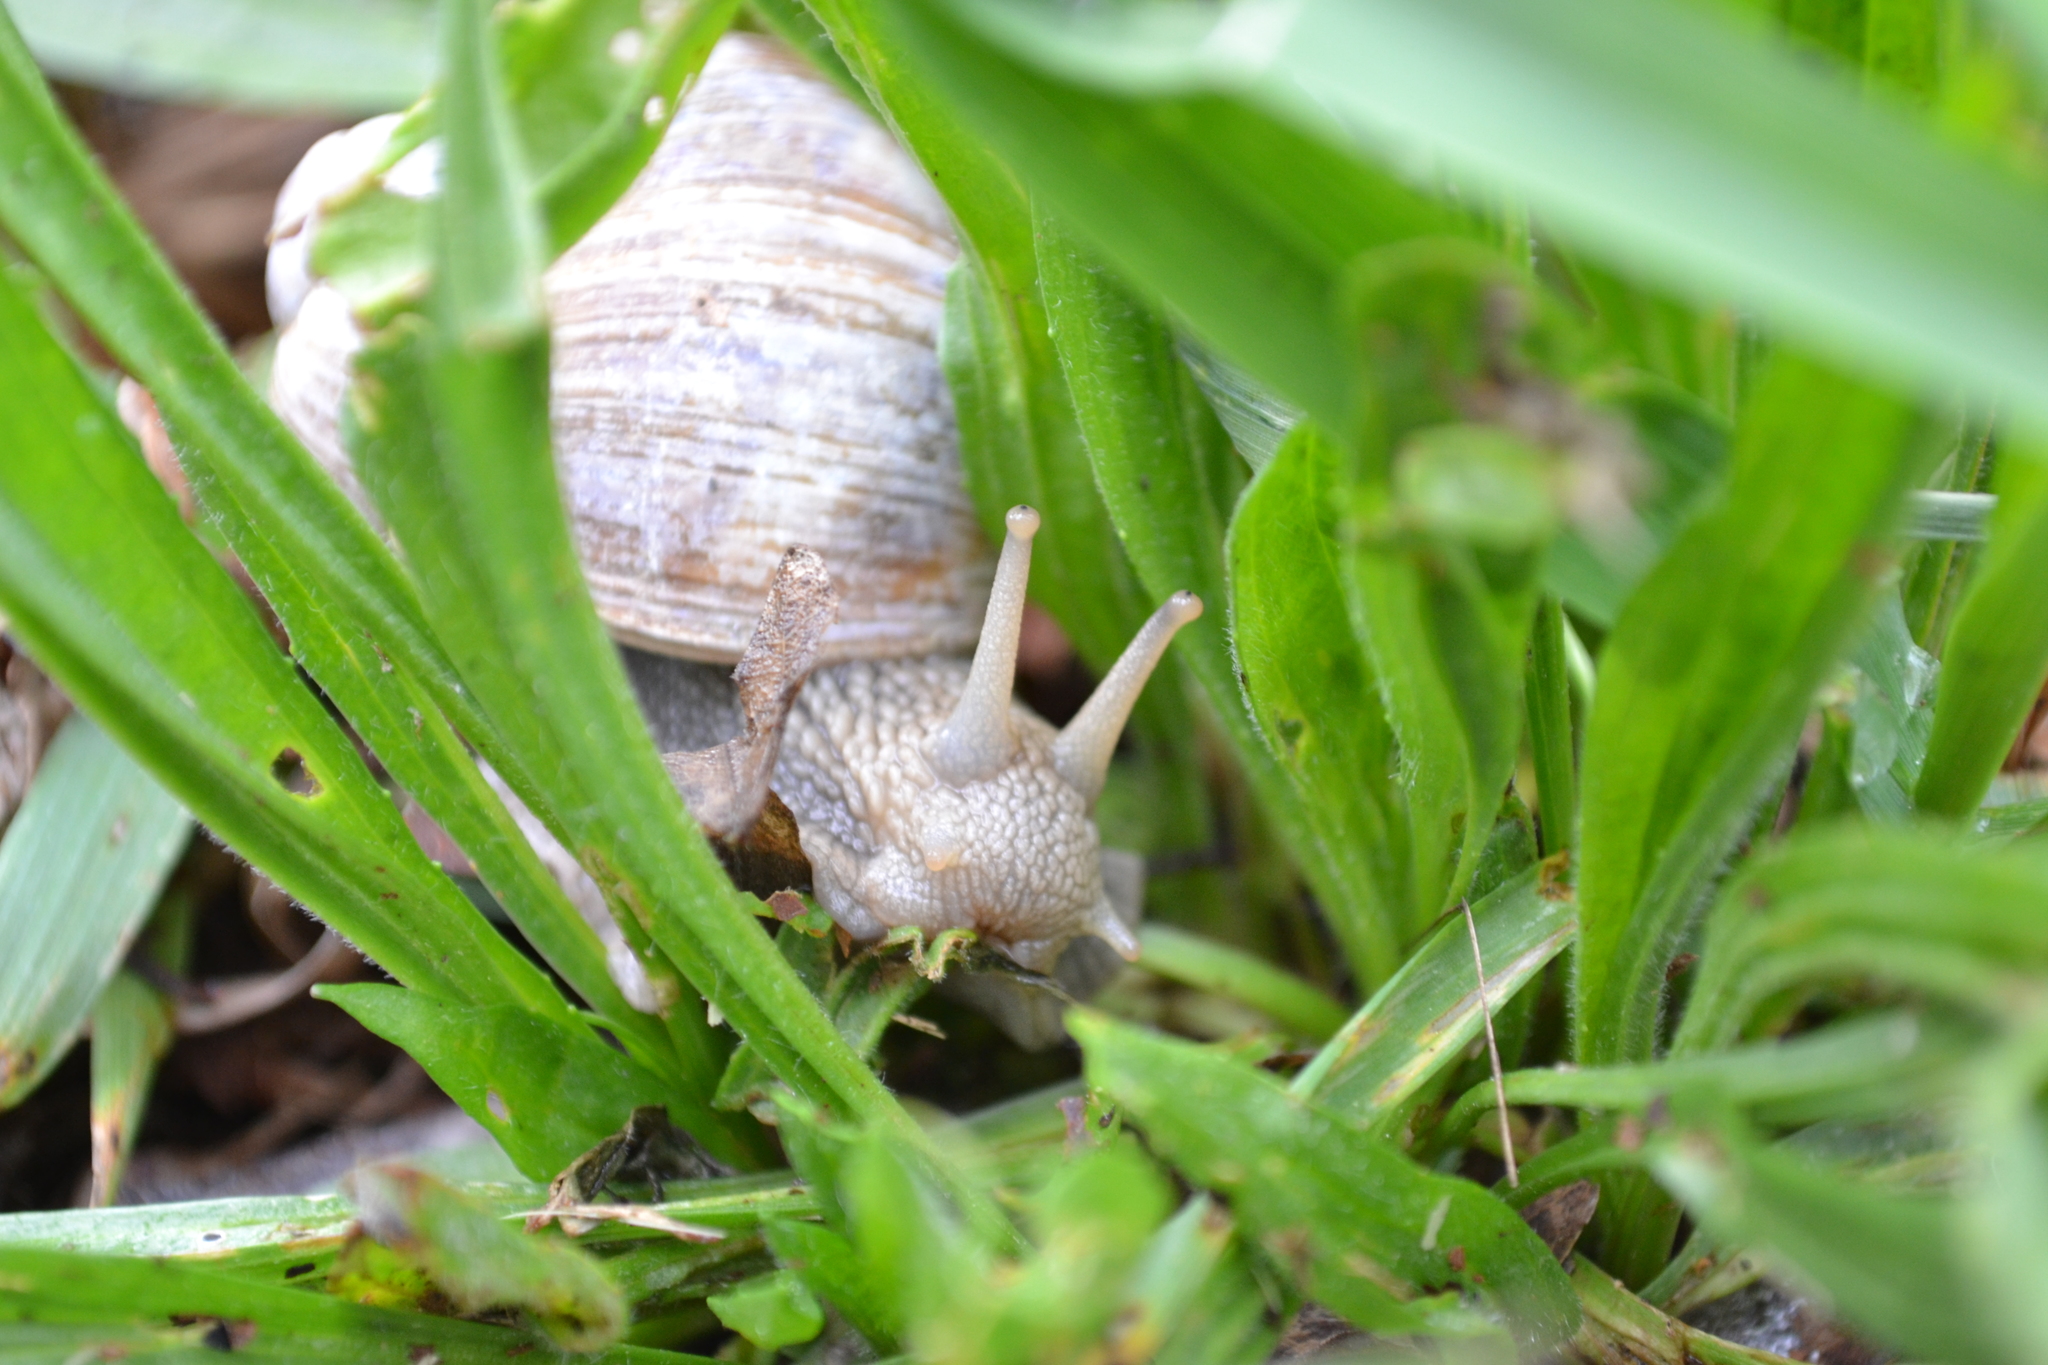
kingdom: Animalia
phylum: Mollusca
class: Gastropoda
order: Stylommatophora
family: Helicidae
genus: Helix
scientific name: Helix pomatia
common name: Roman snail
